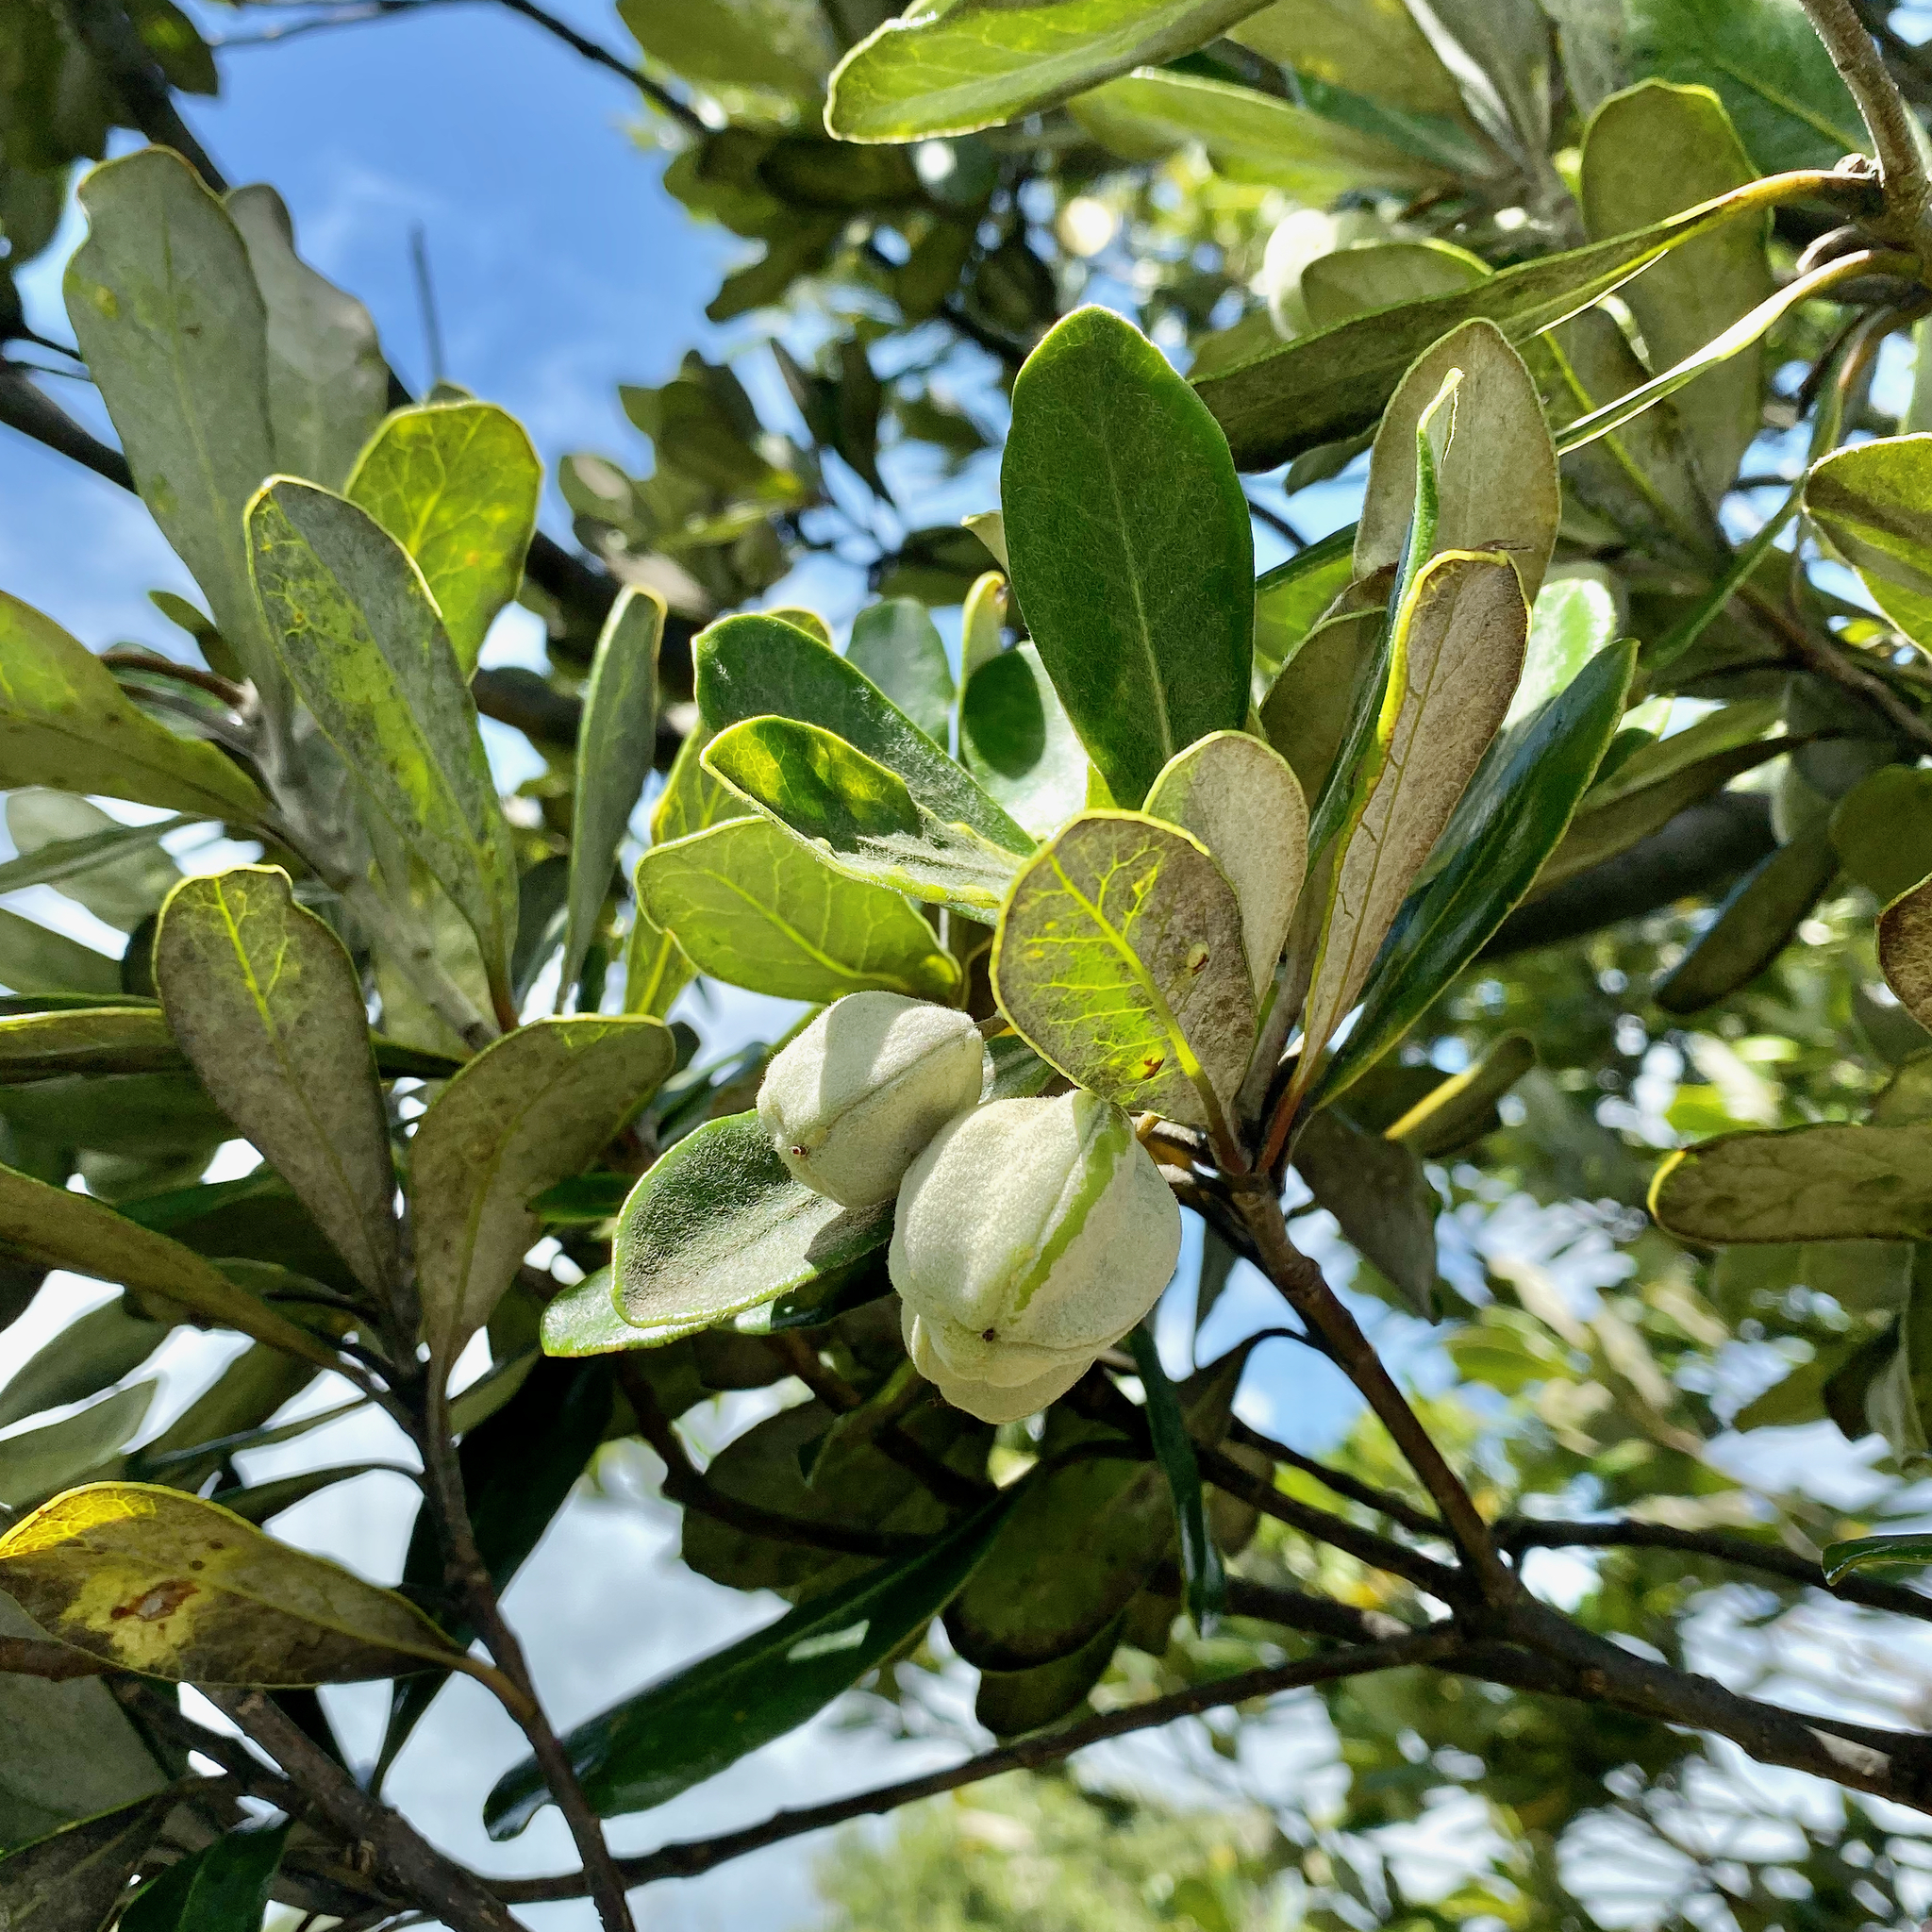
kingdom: Plantae
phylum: Tracheophyta
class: Magnoliopsida
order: Apiales
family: Pittosporaceae
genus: Pittosporum
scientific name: Pittosporum crassifolium
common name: Karo
